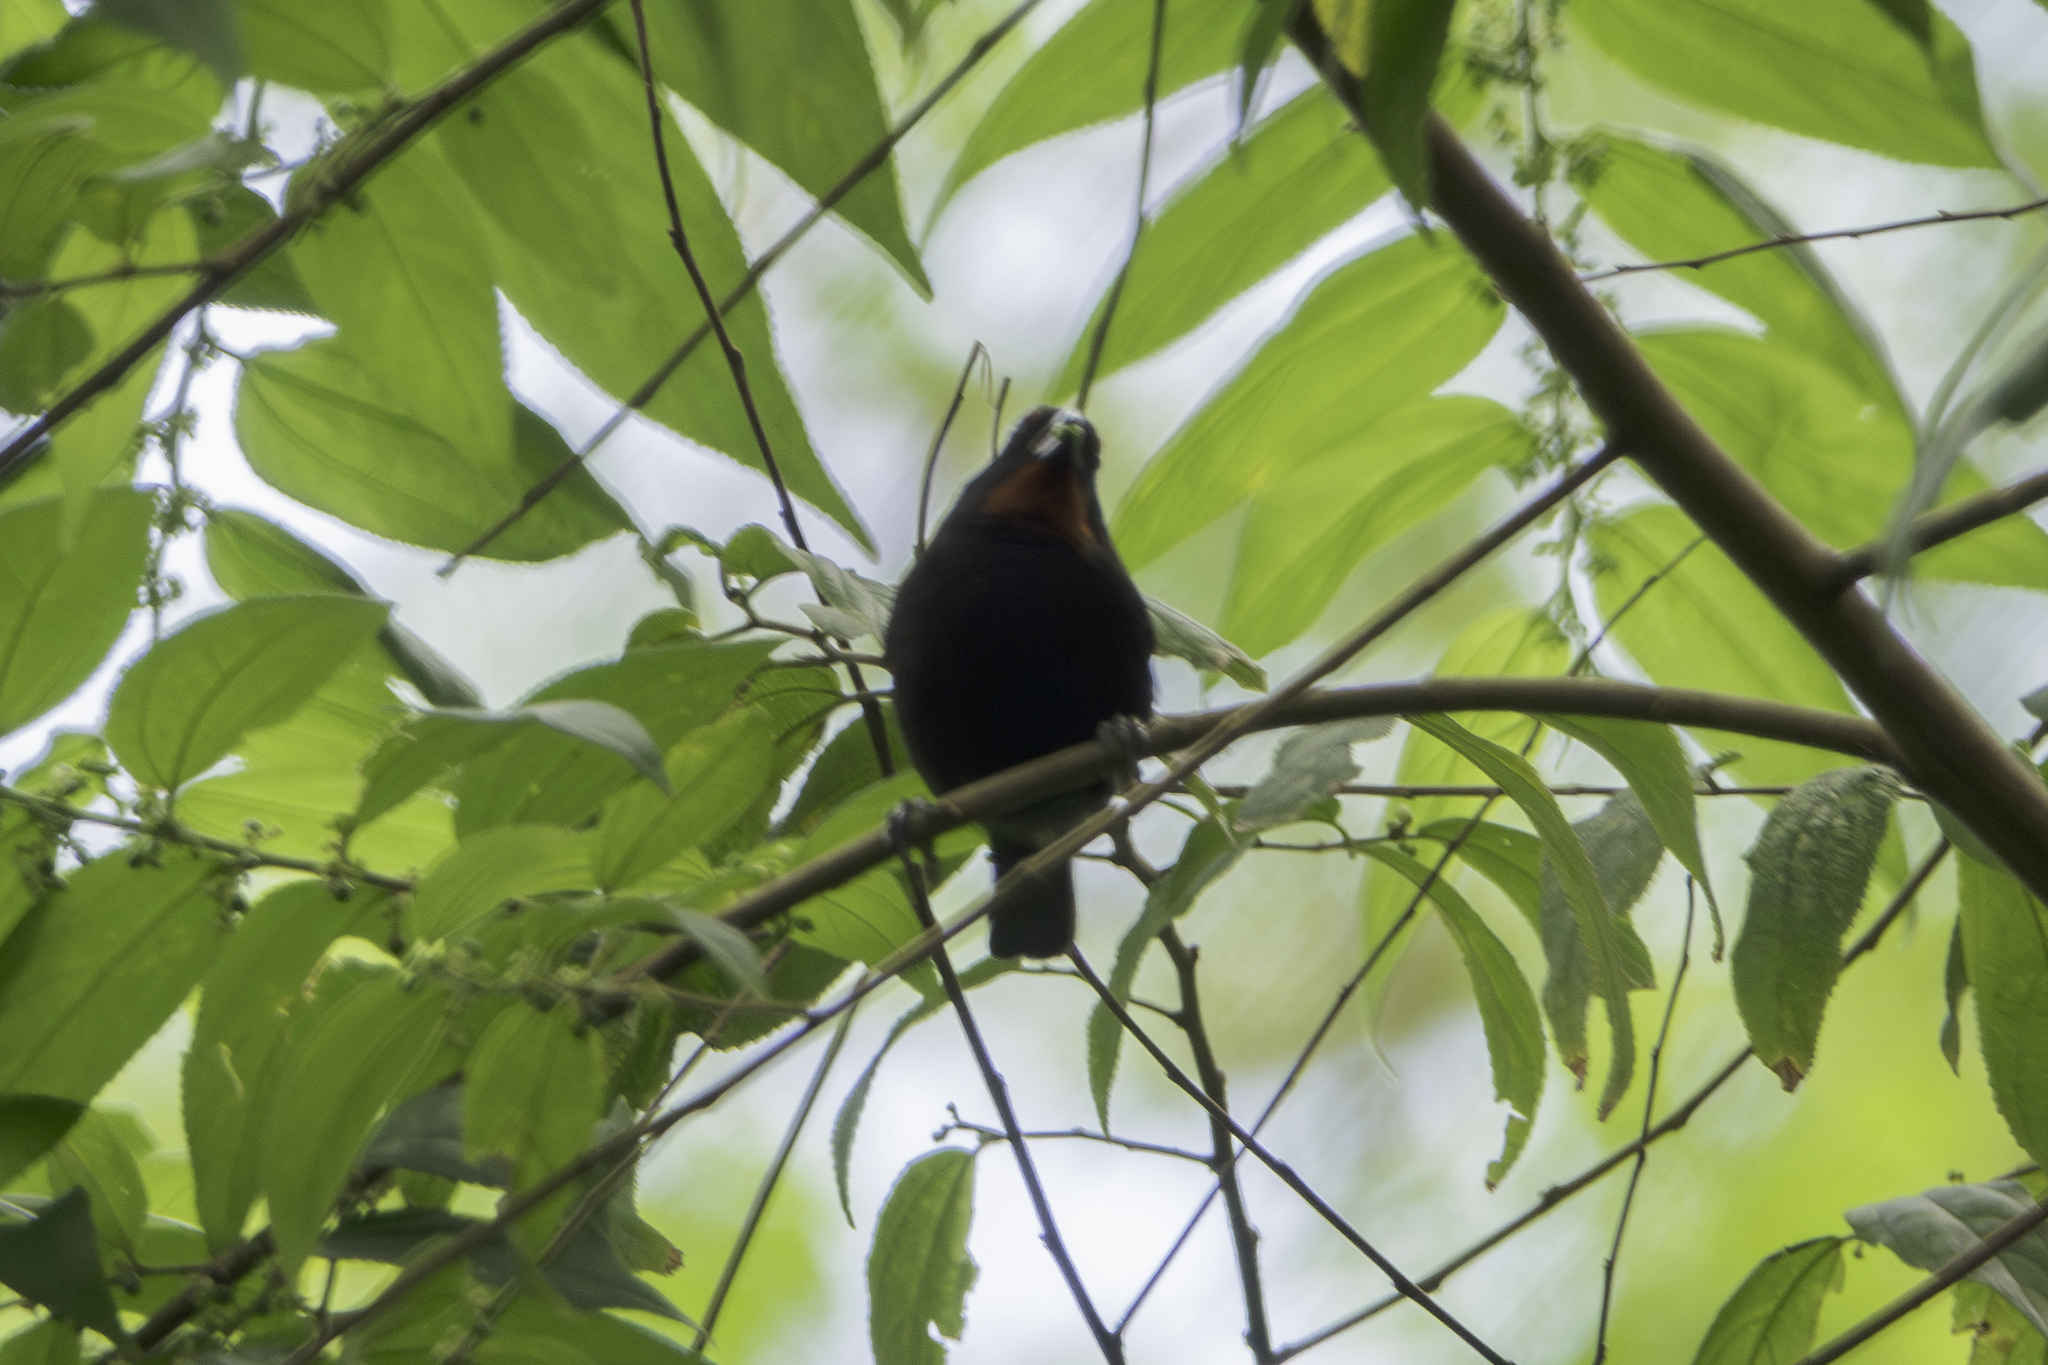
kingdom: Animalia
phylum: Chordata
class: Aves
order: Passeriformes
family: Thraupidae
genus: Loxigilla
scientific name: Loxigilla noctis
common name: Lesser antillean bullfinch
